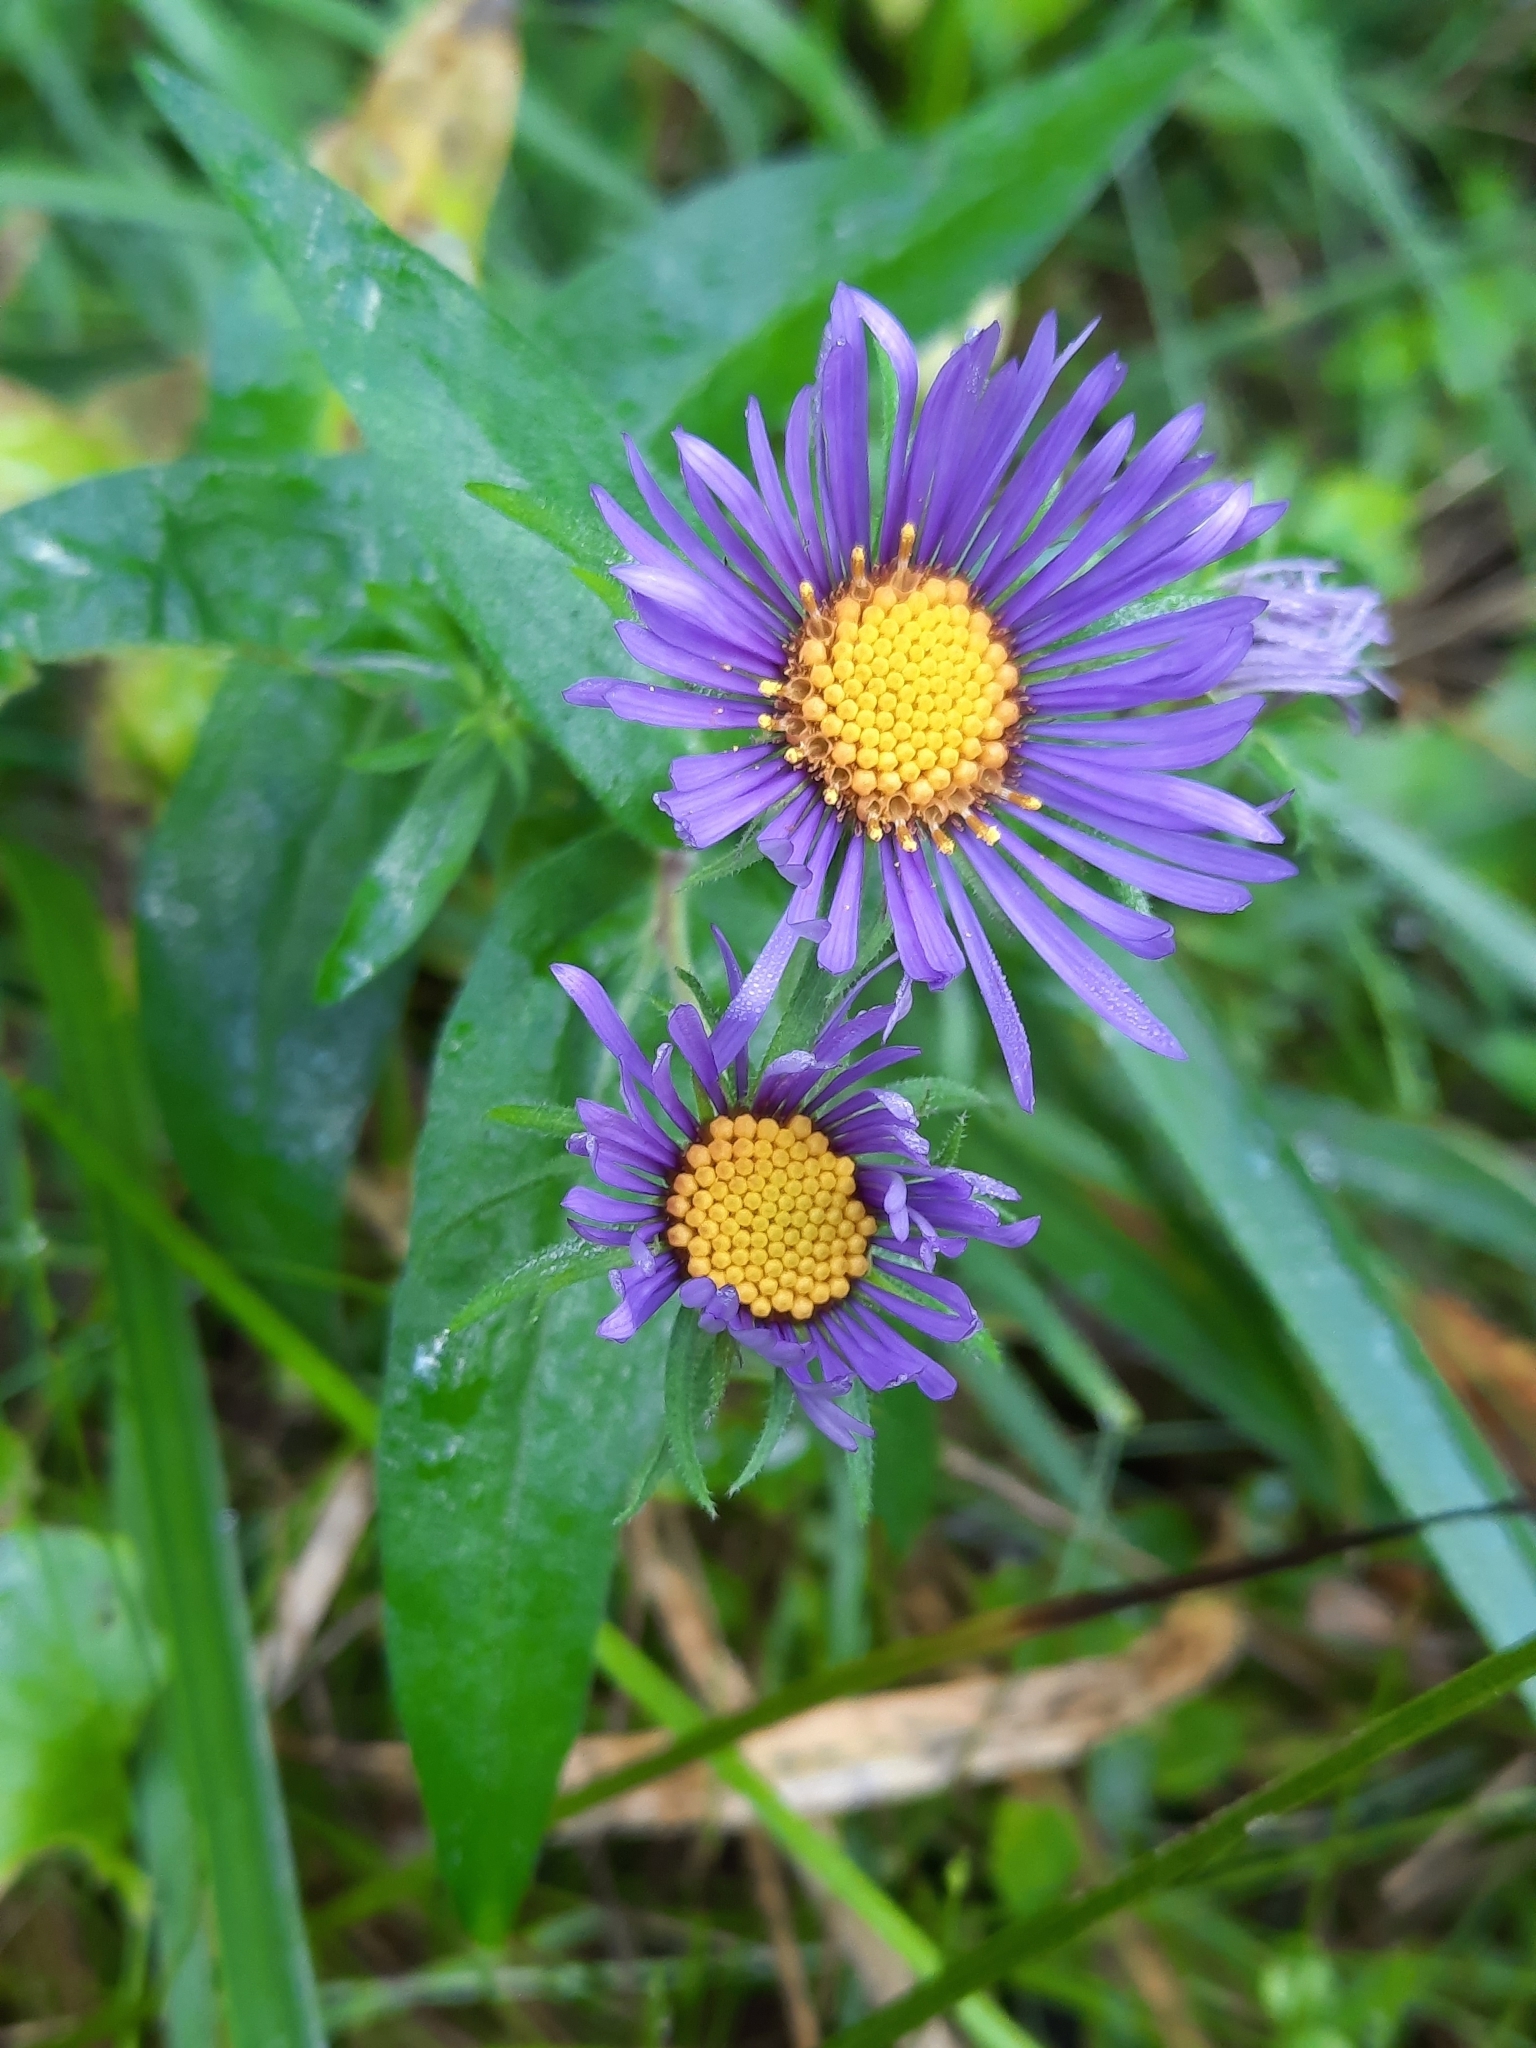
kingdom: Plantae
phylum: Tracheophyta
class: Magnoliopsida
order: Asterales
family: Asteraceae
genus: Symphyotrichum
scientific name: Symphyotrichum novae-angliae
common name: Michaelmas daisy
